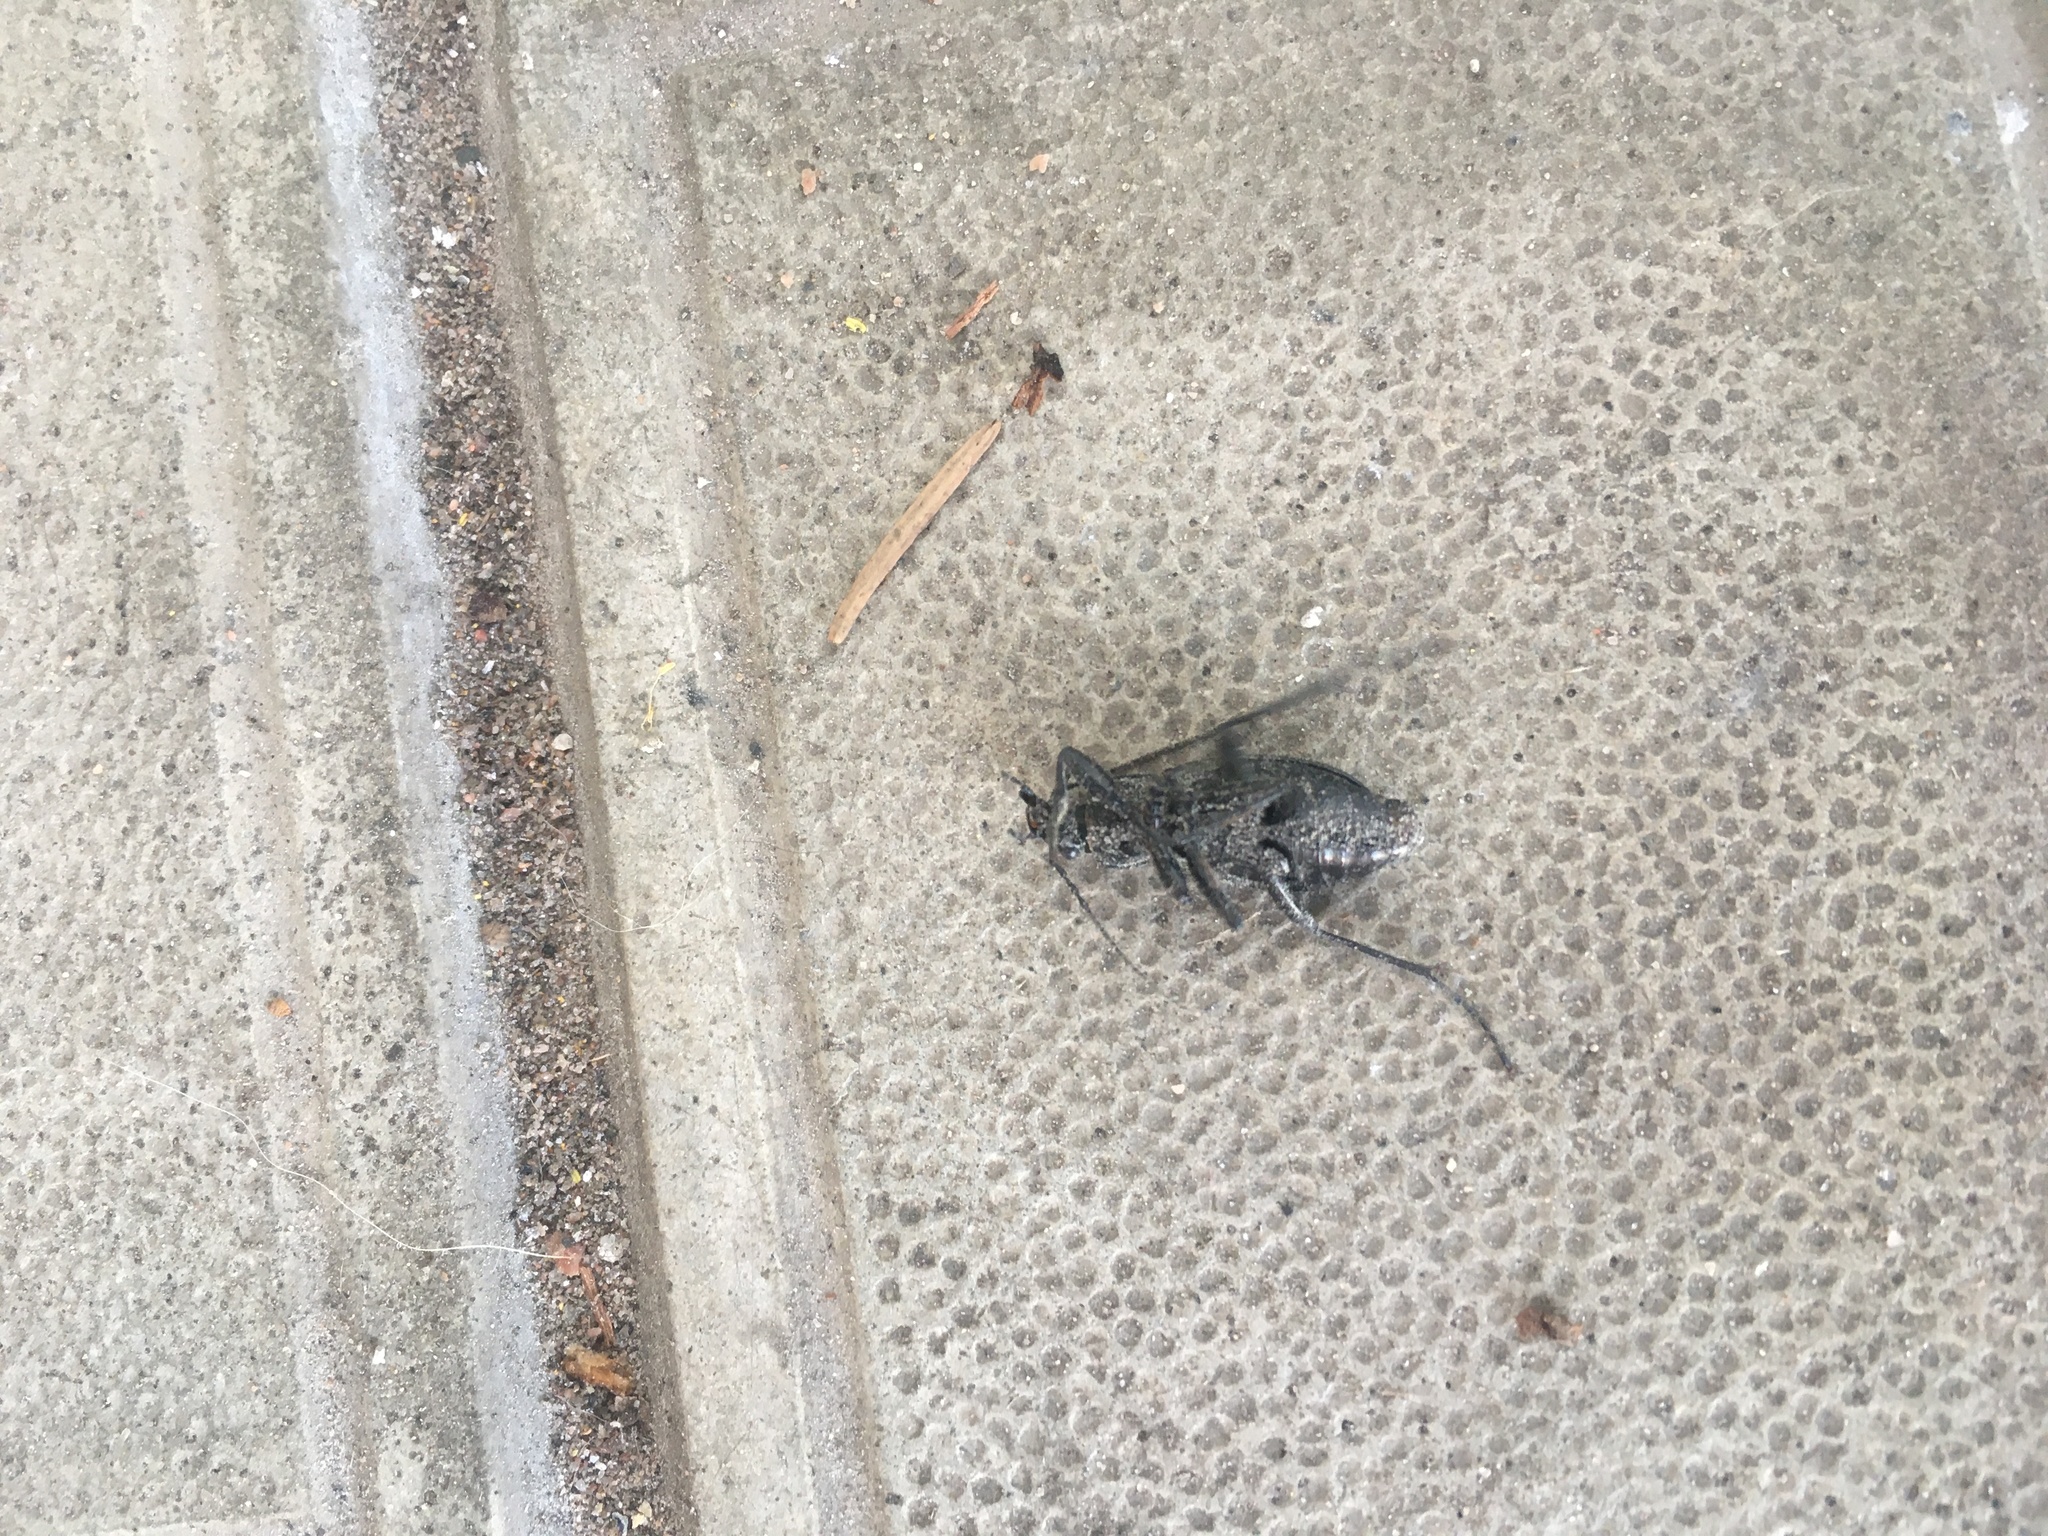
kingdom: Animalia
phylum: Arthropoda
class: Insecta
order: Coleoptera
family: Carabidae
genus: Carabus
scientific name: Carabus granulatus
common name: Granulate ground beetle
